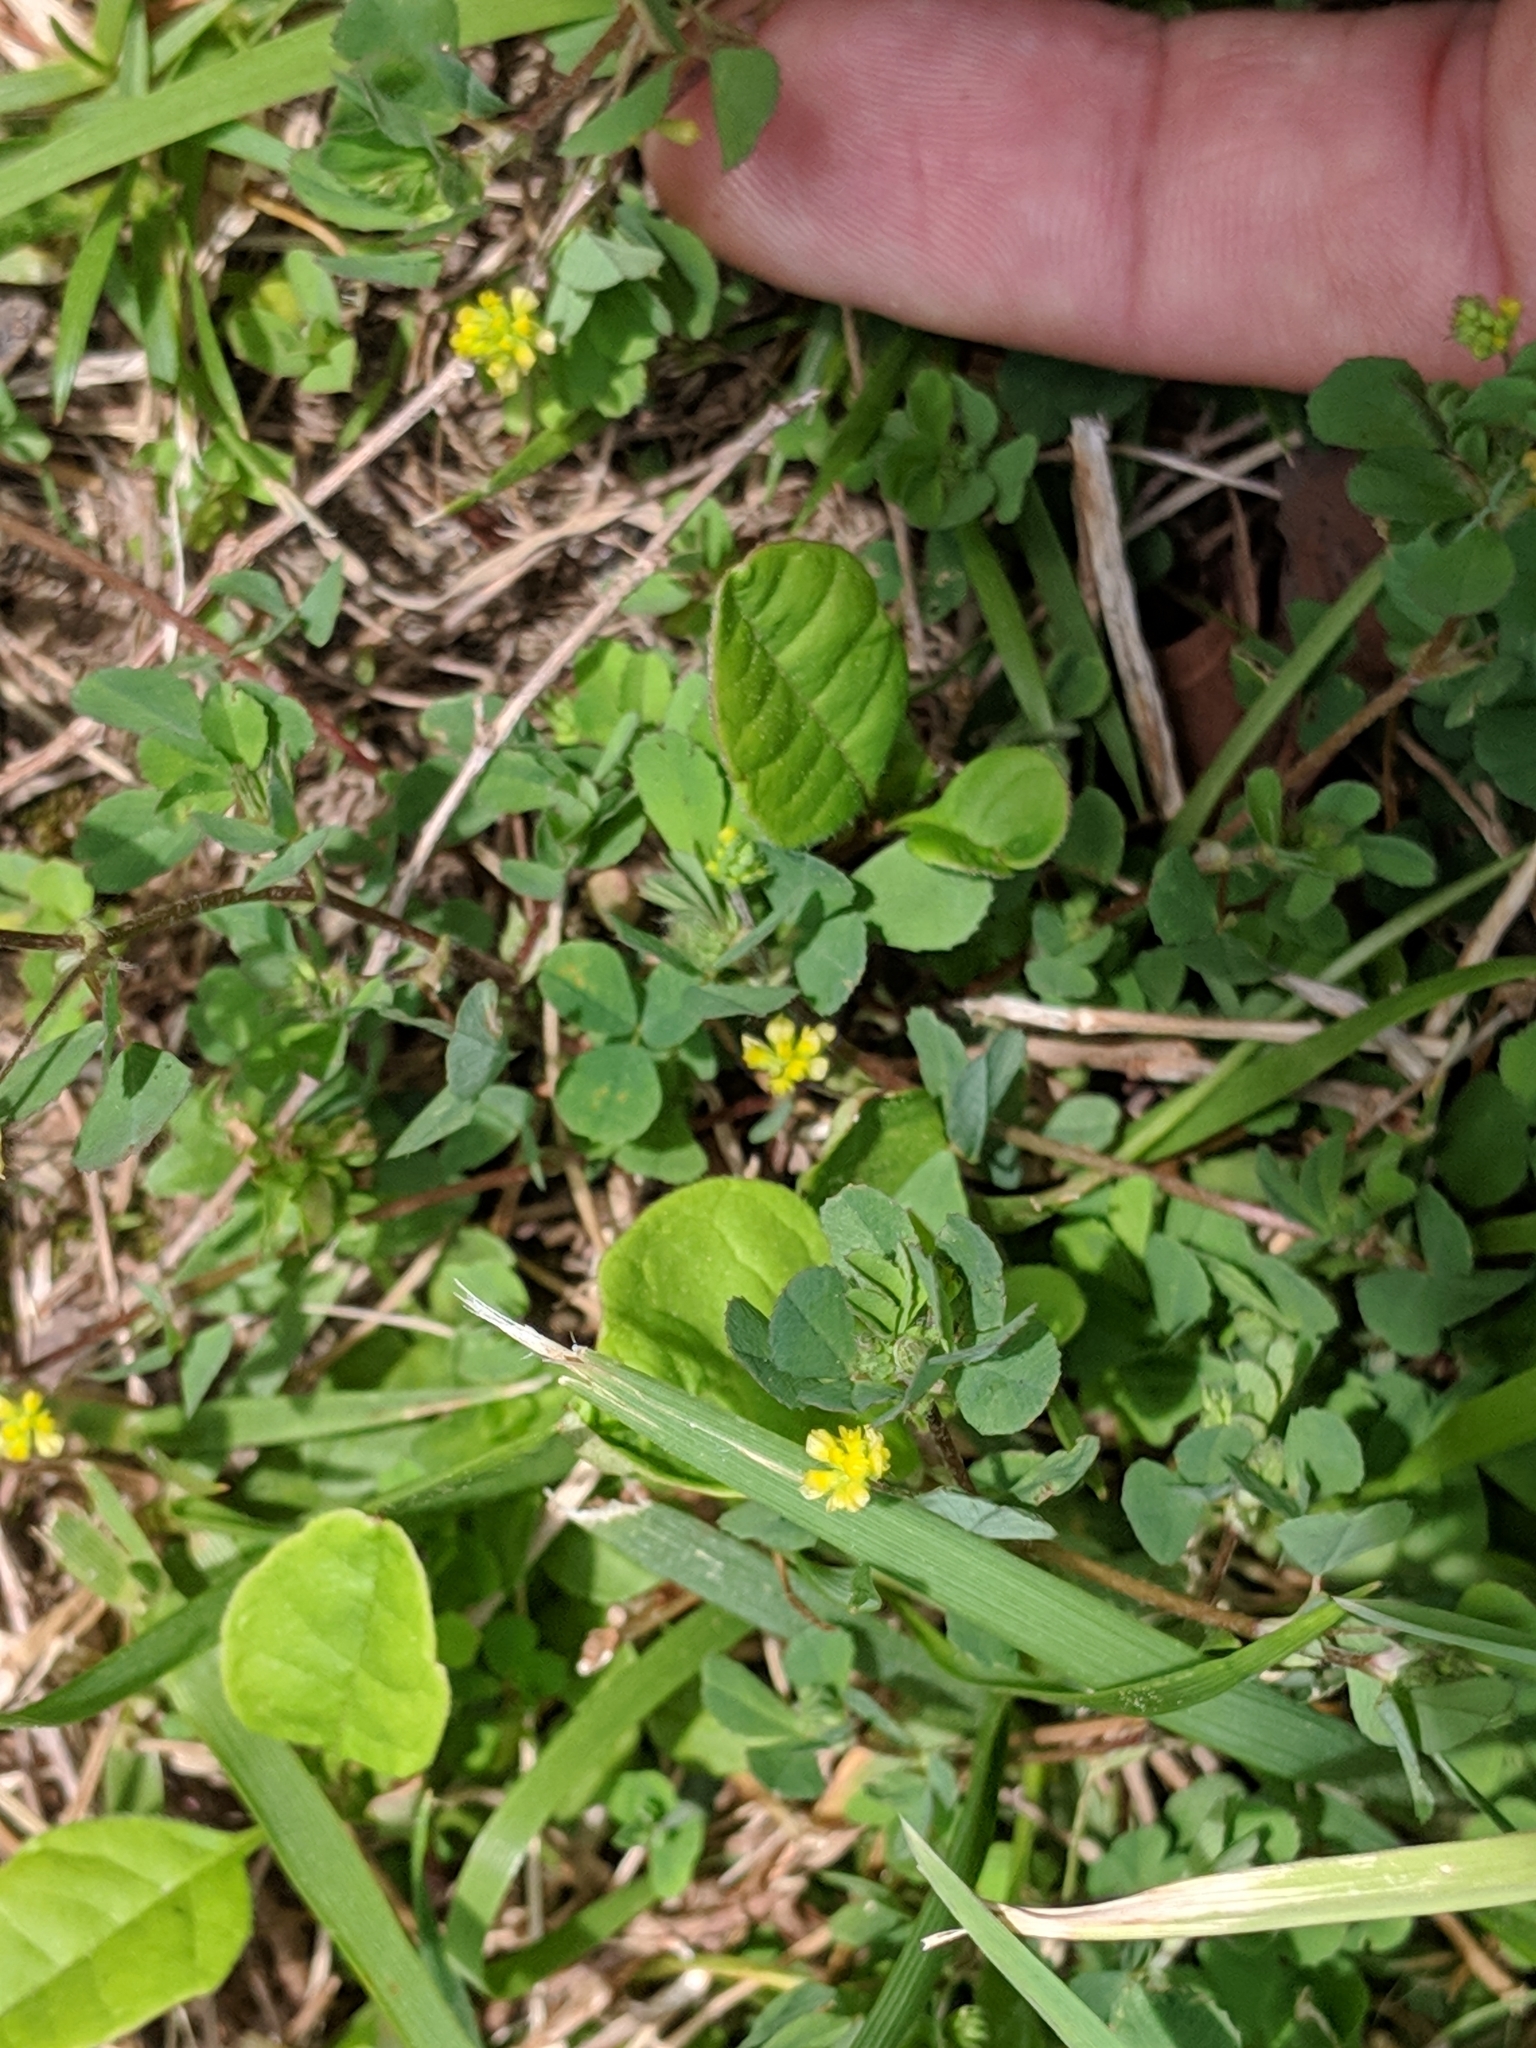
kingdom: Plantae
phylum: Tracheophyta
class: Magnoliopsida
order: Fabales
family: Fabaceae
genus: Medicago
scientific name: Medicago lupulina
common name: Black medick
